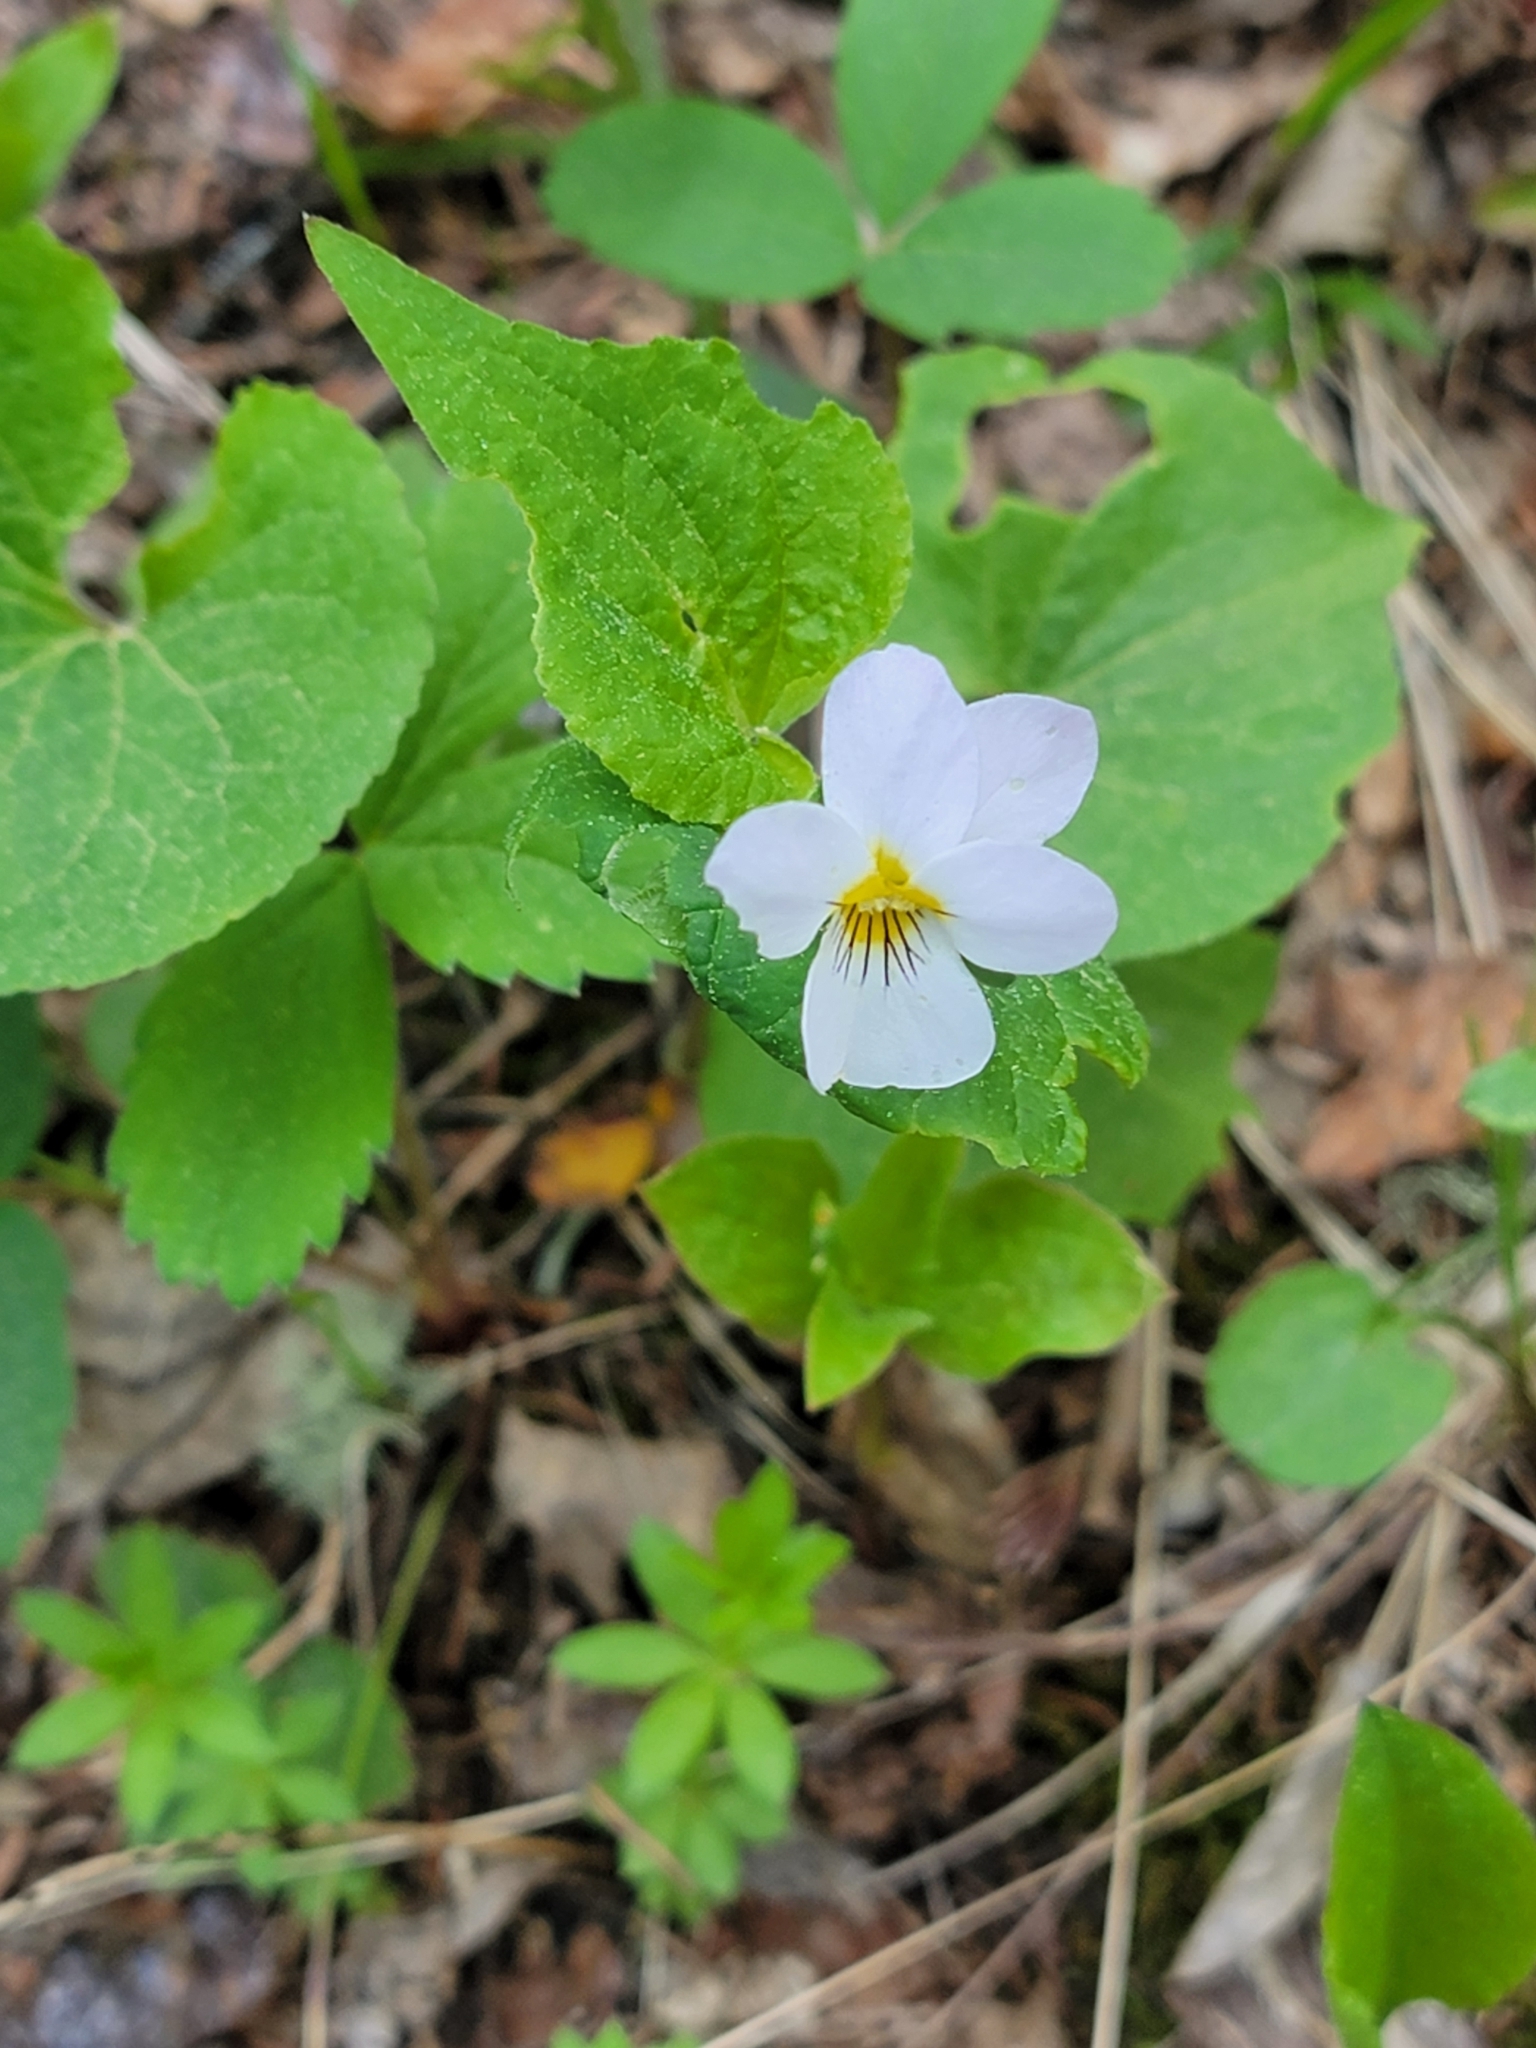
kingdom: Plantae
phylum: Tracheophyta
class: Magnoliopsida
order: Malpighiales
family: Violaceae
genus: Viola
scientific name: Viola canadensis
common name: Canada violet
